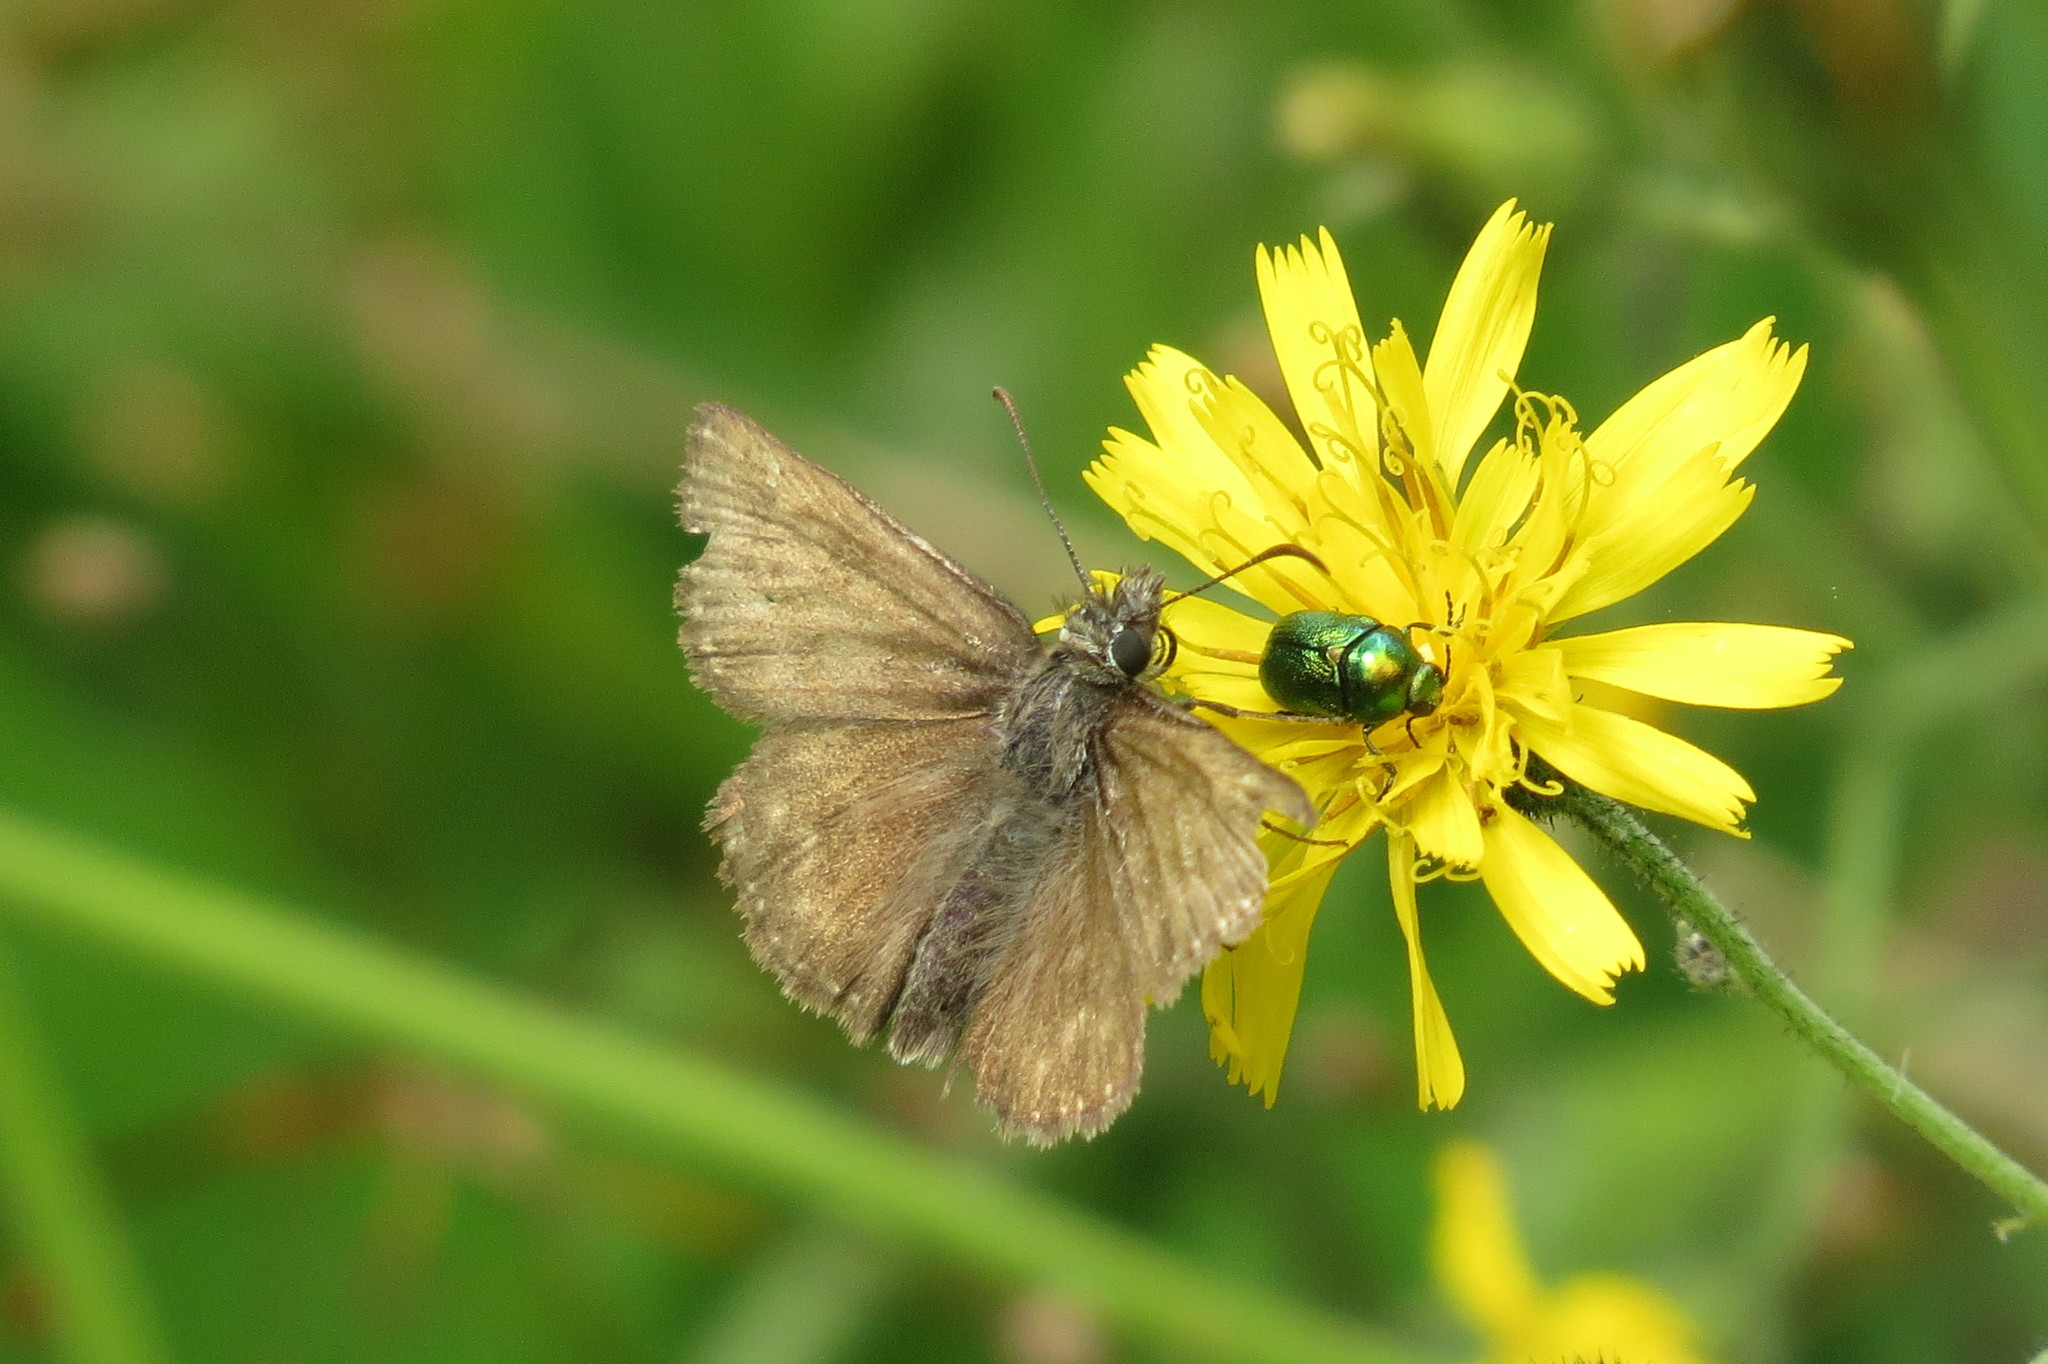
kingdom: Animalia
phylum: Arthropoda
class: Insecta
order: Lepidoptera
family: Hesperiidae
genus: Erynnis
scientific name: Erynnis tages
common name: Dingy skipper
